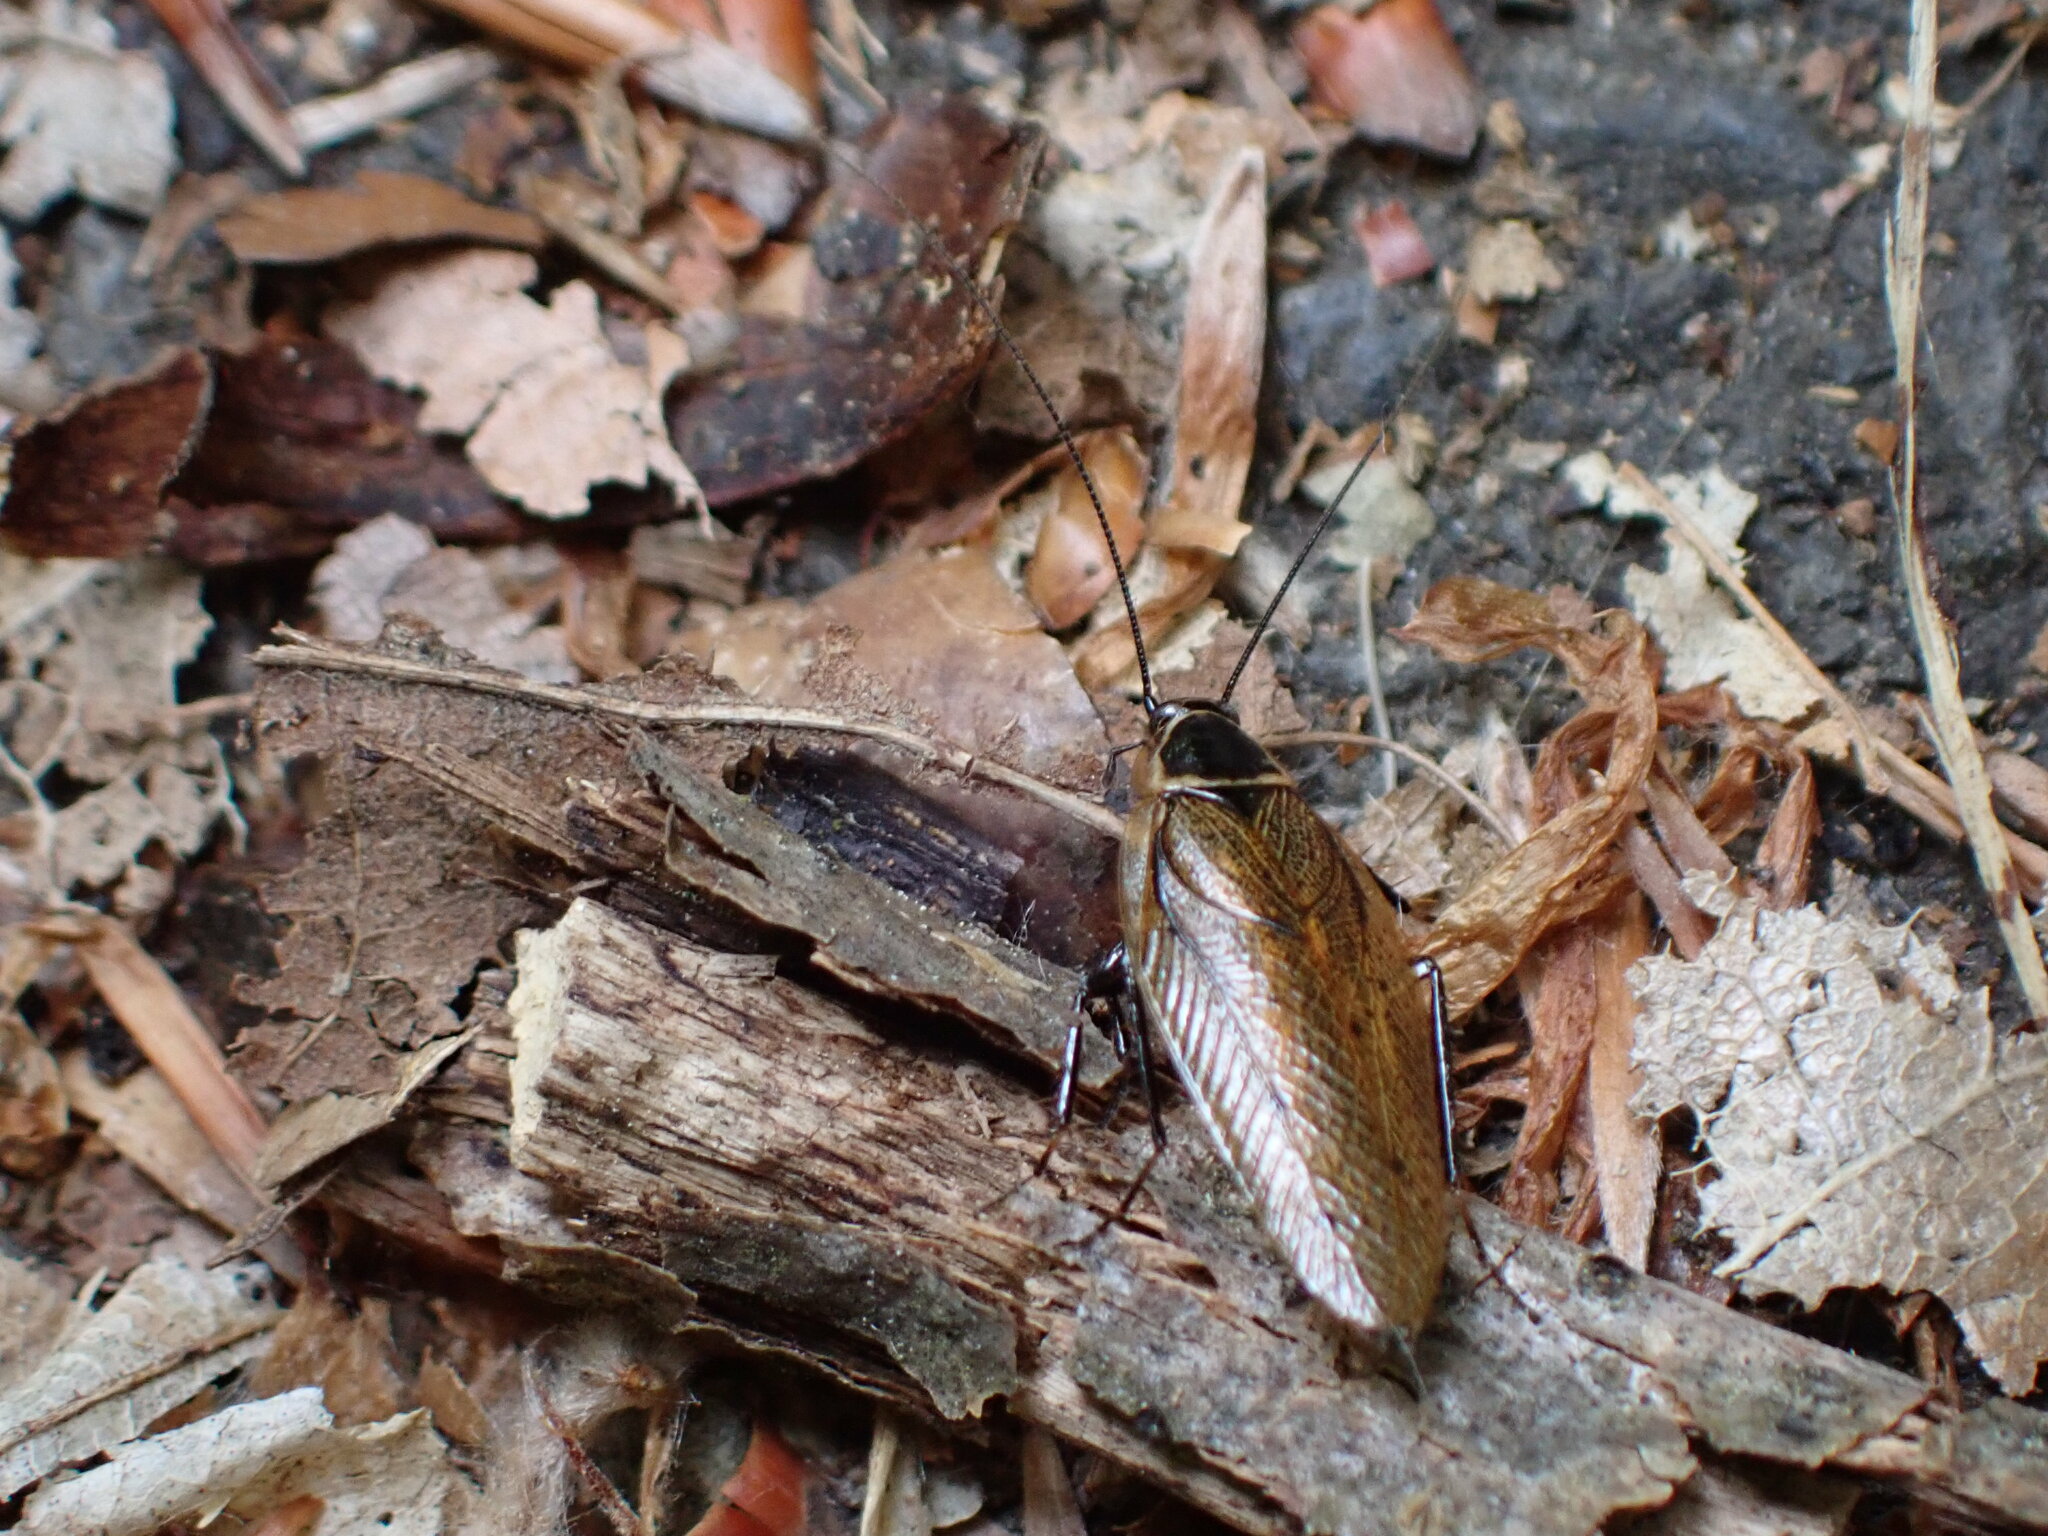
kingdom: Animalia
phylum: Arthropoda
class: Insecta
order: Blattodea
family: Ectobiidae
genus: Ectobius
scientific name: Ectobius sylvestris
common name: Forest cockroach
